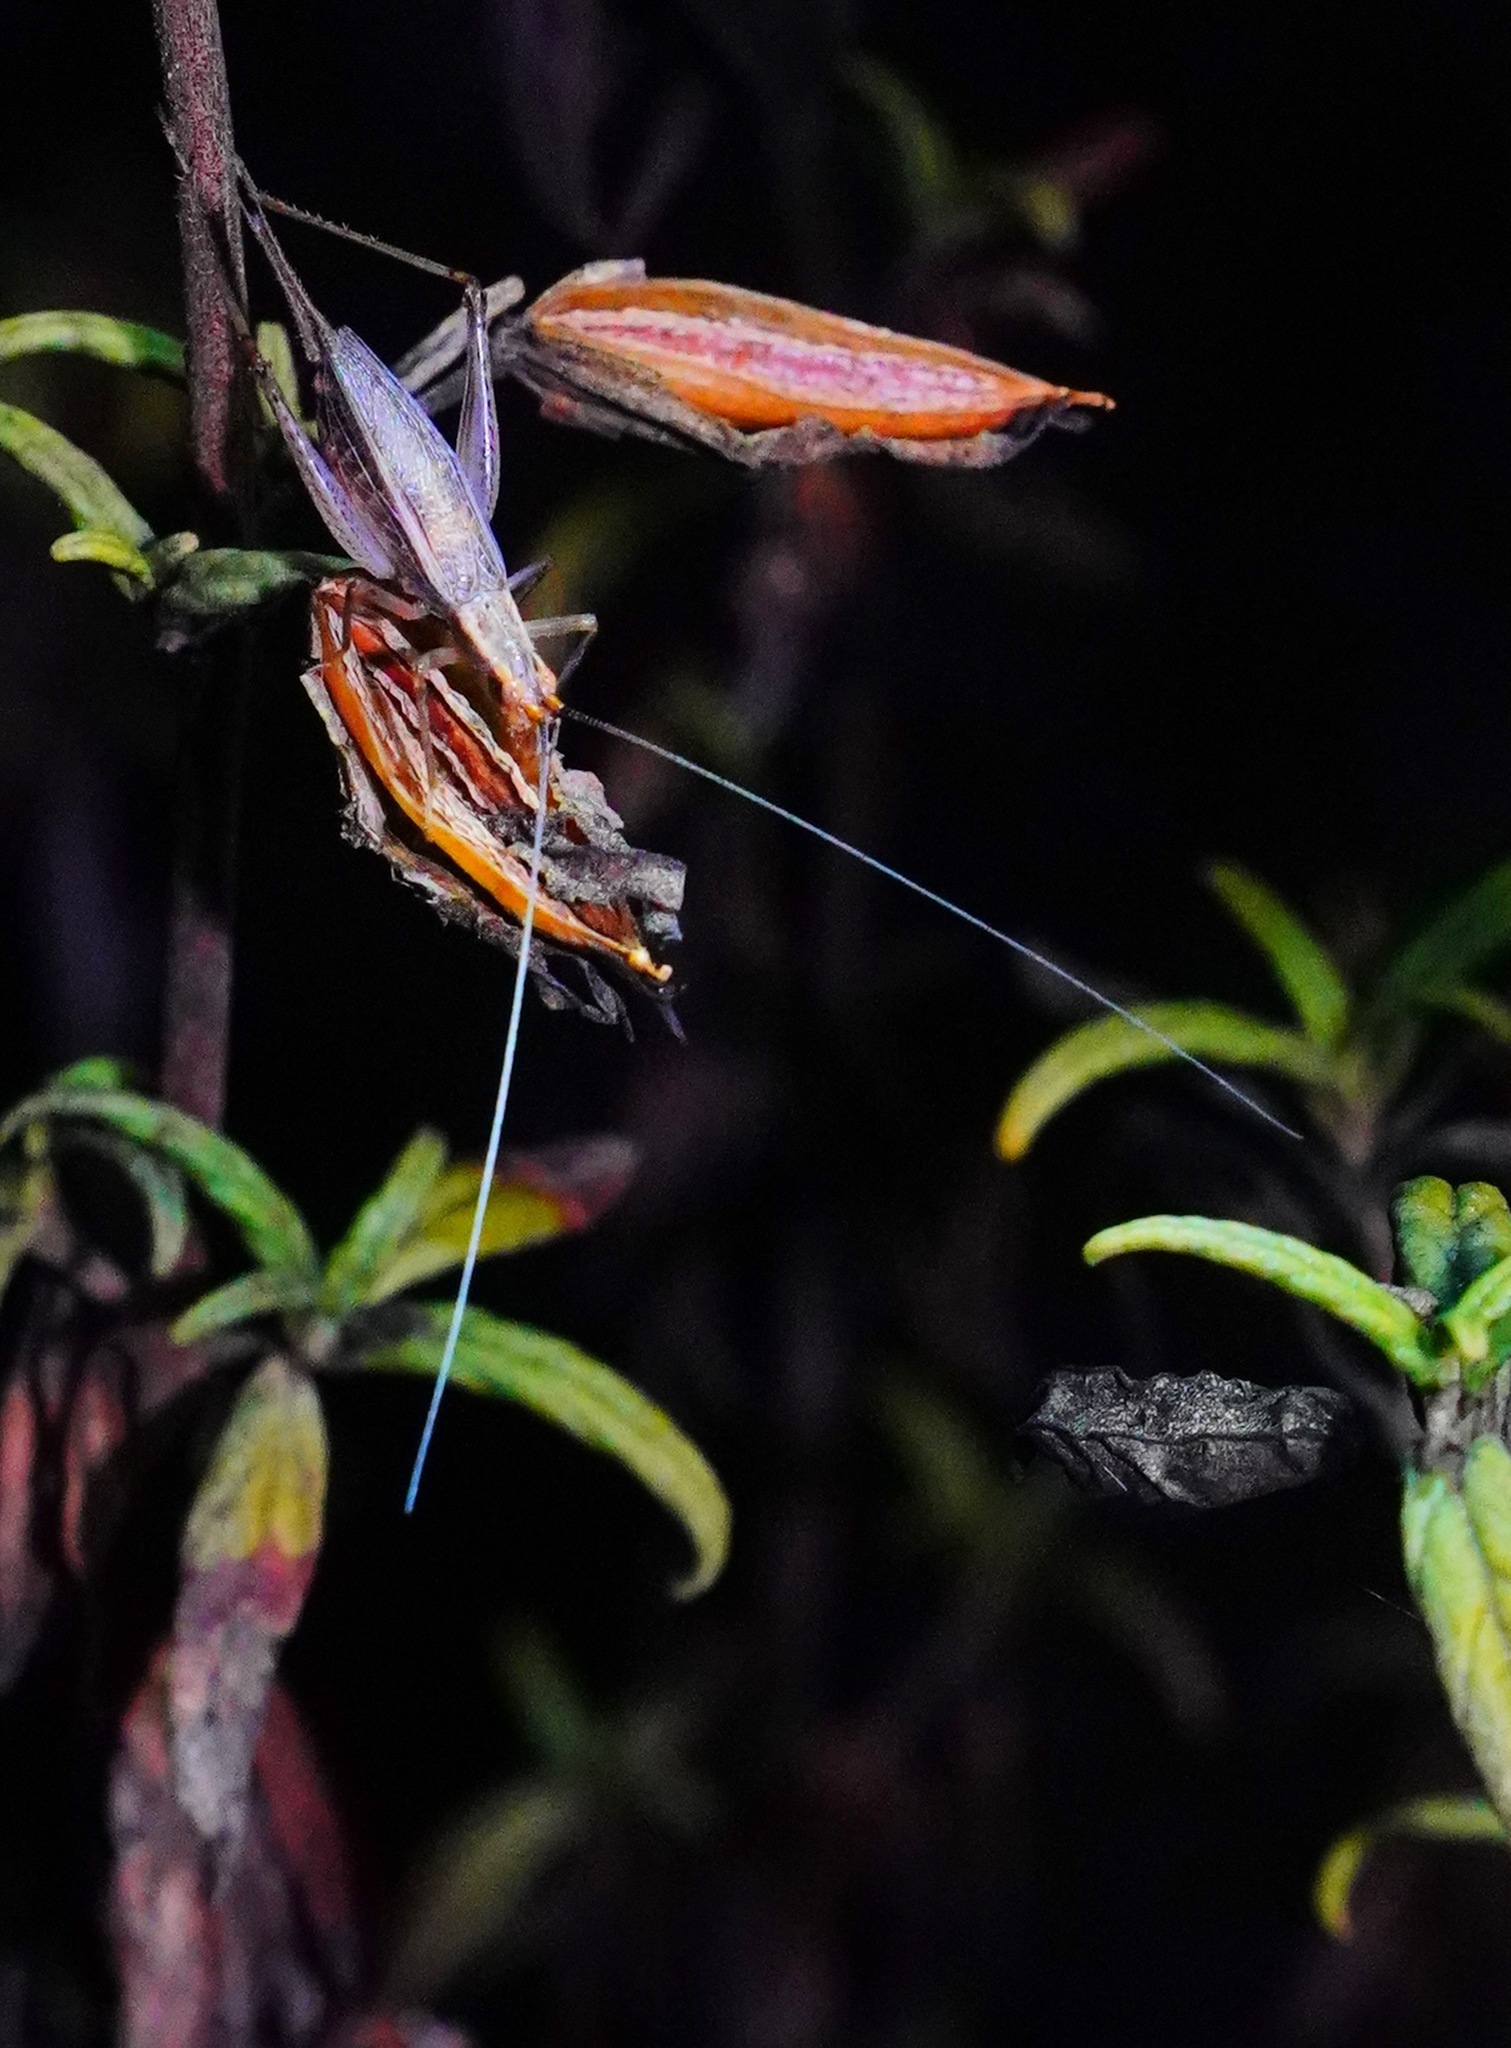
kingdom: Animalia
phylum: Arthropoda
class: Insecta
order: Orthoptera
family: Gryllidae
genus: Oecanthus
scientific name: Oecanthus californicus
